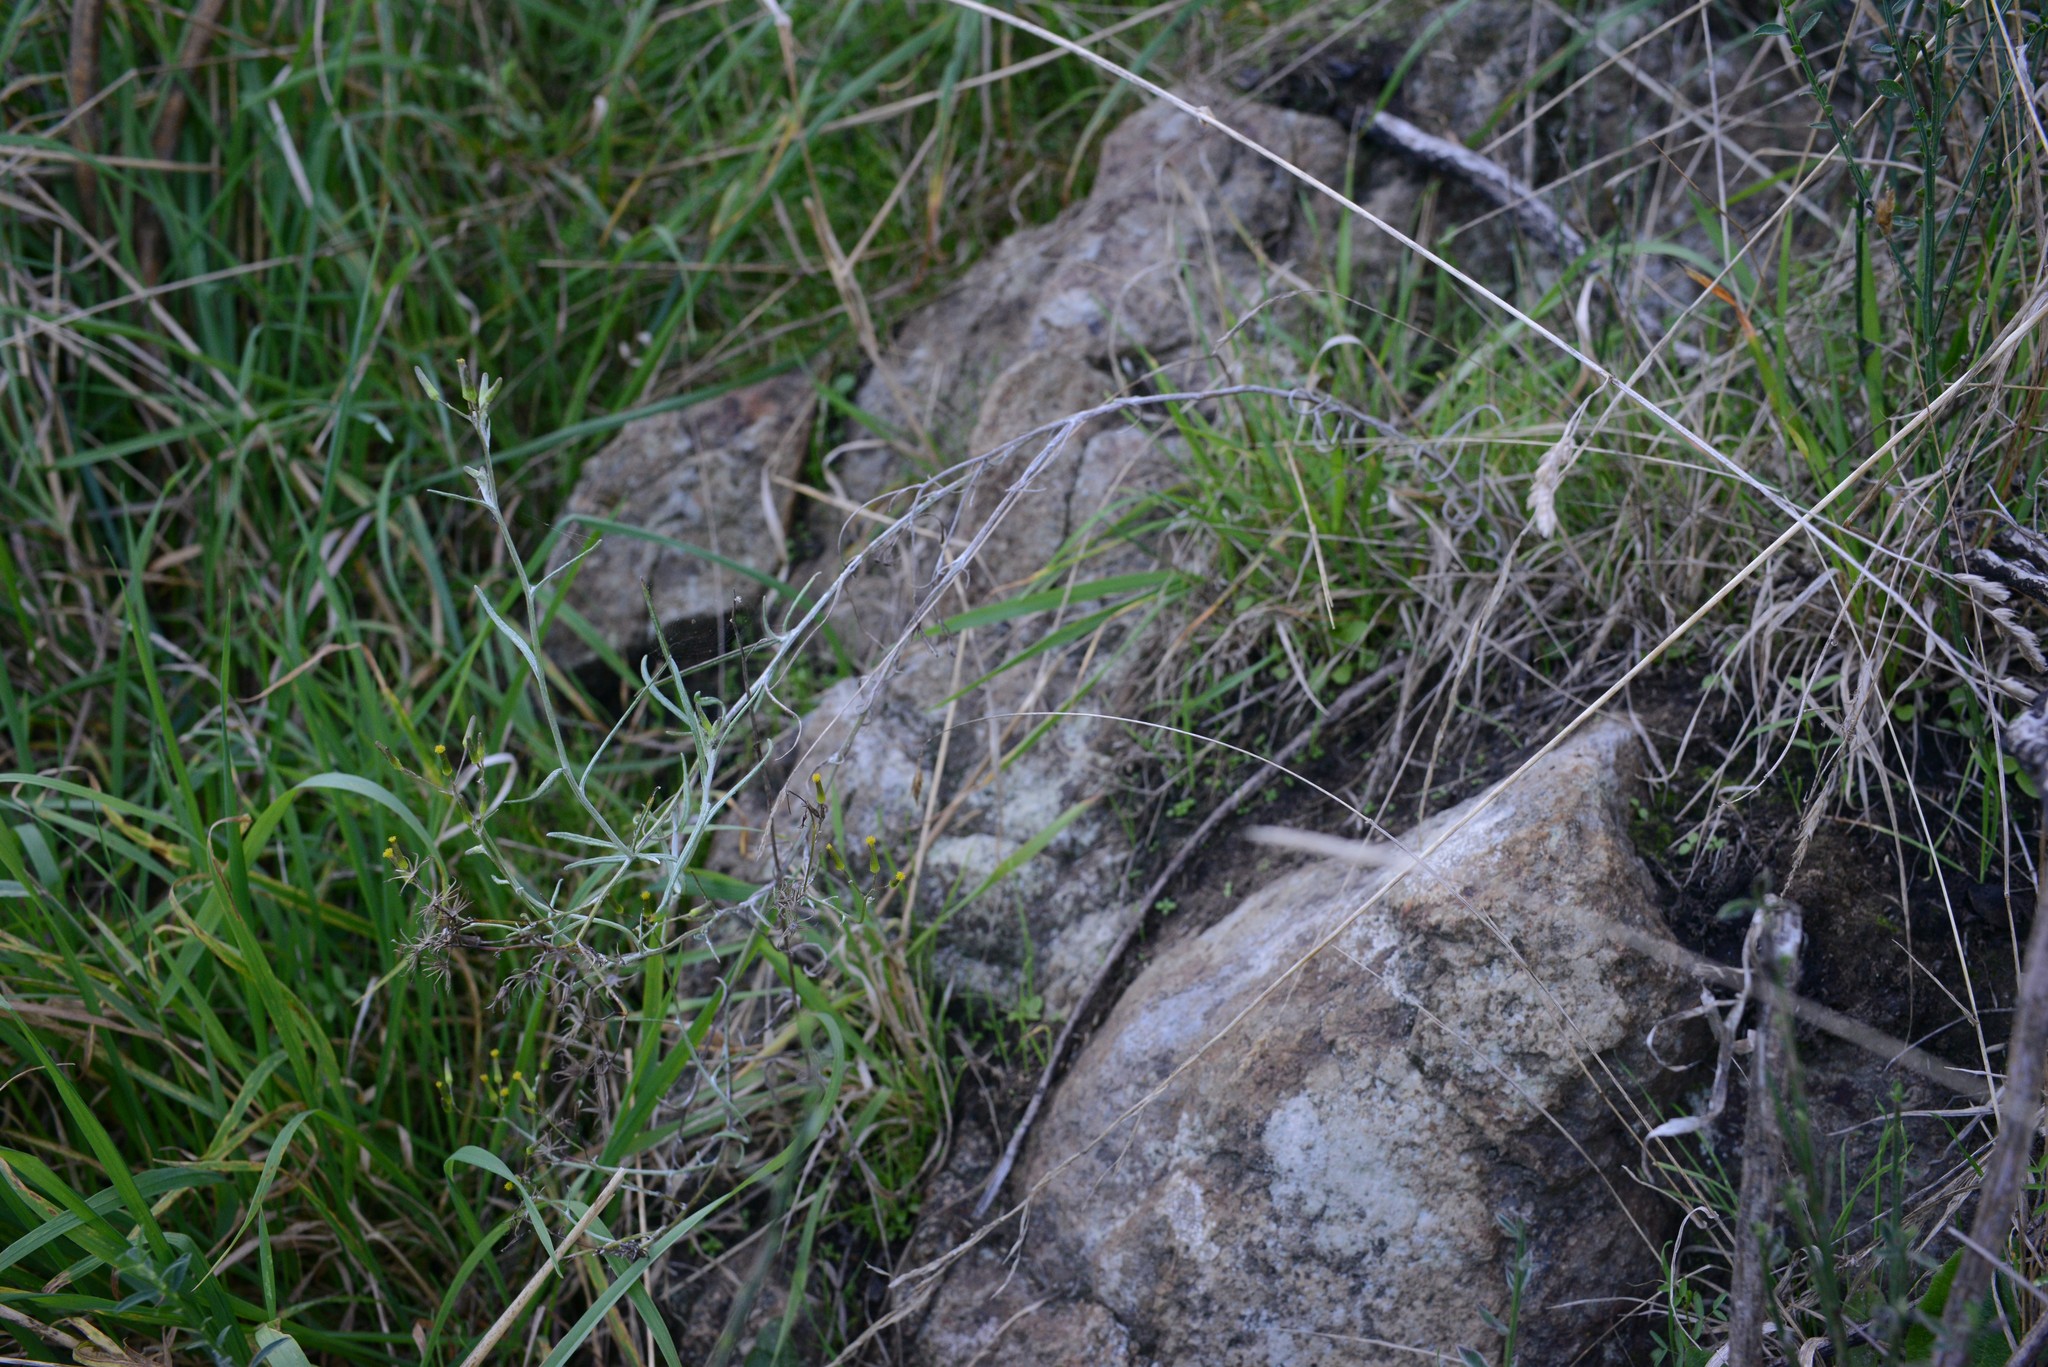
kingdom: Plantae
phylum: Tracheophyta
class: Magnoliopsida
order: Asterales
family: Asteraceae
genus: Senecio
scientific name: Senecio quadridentatus
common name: Cotton fireweed
